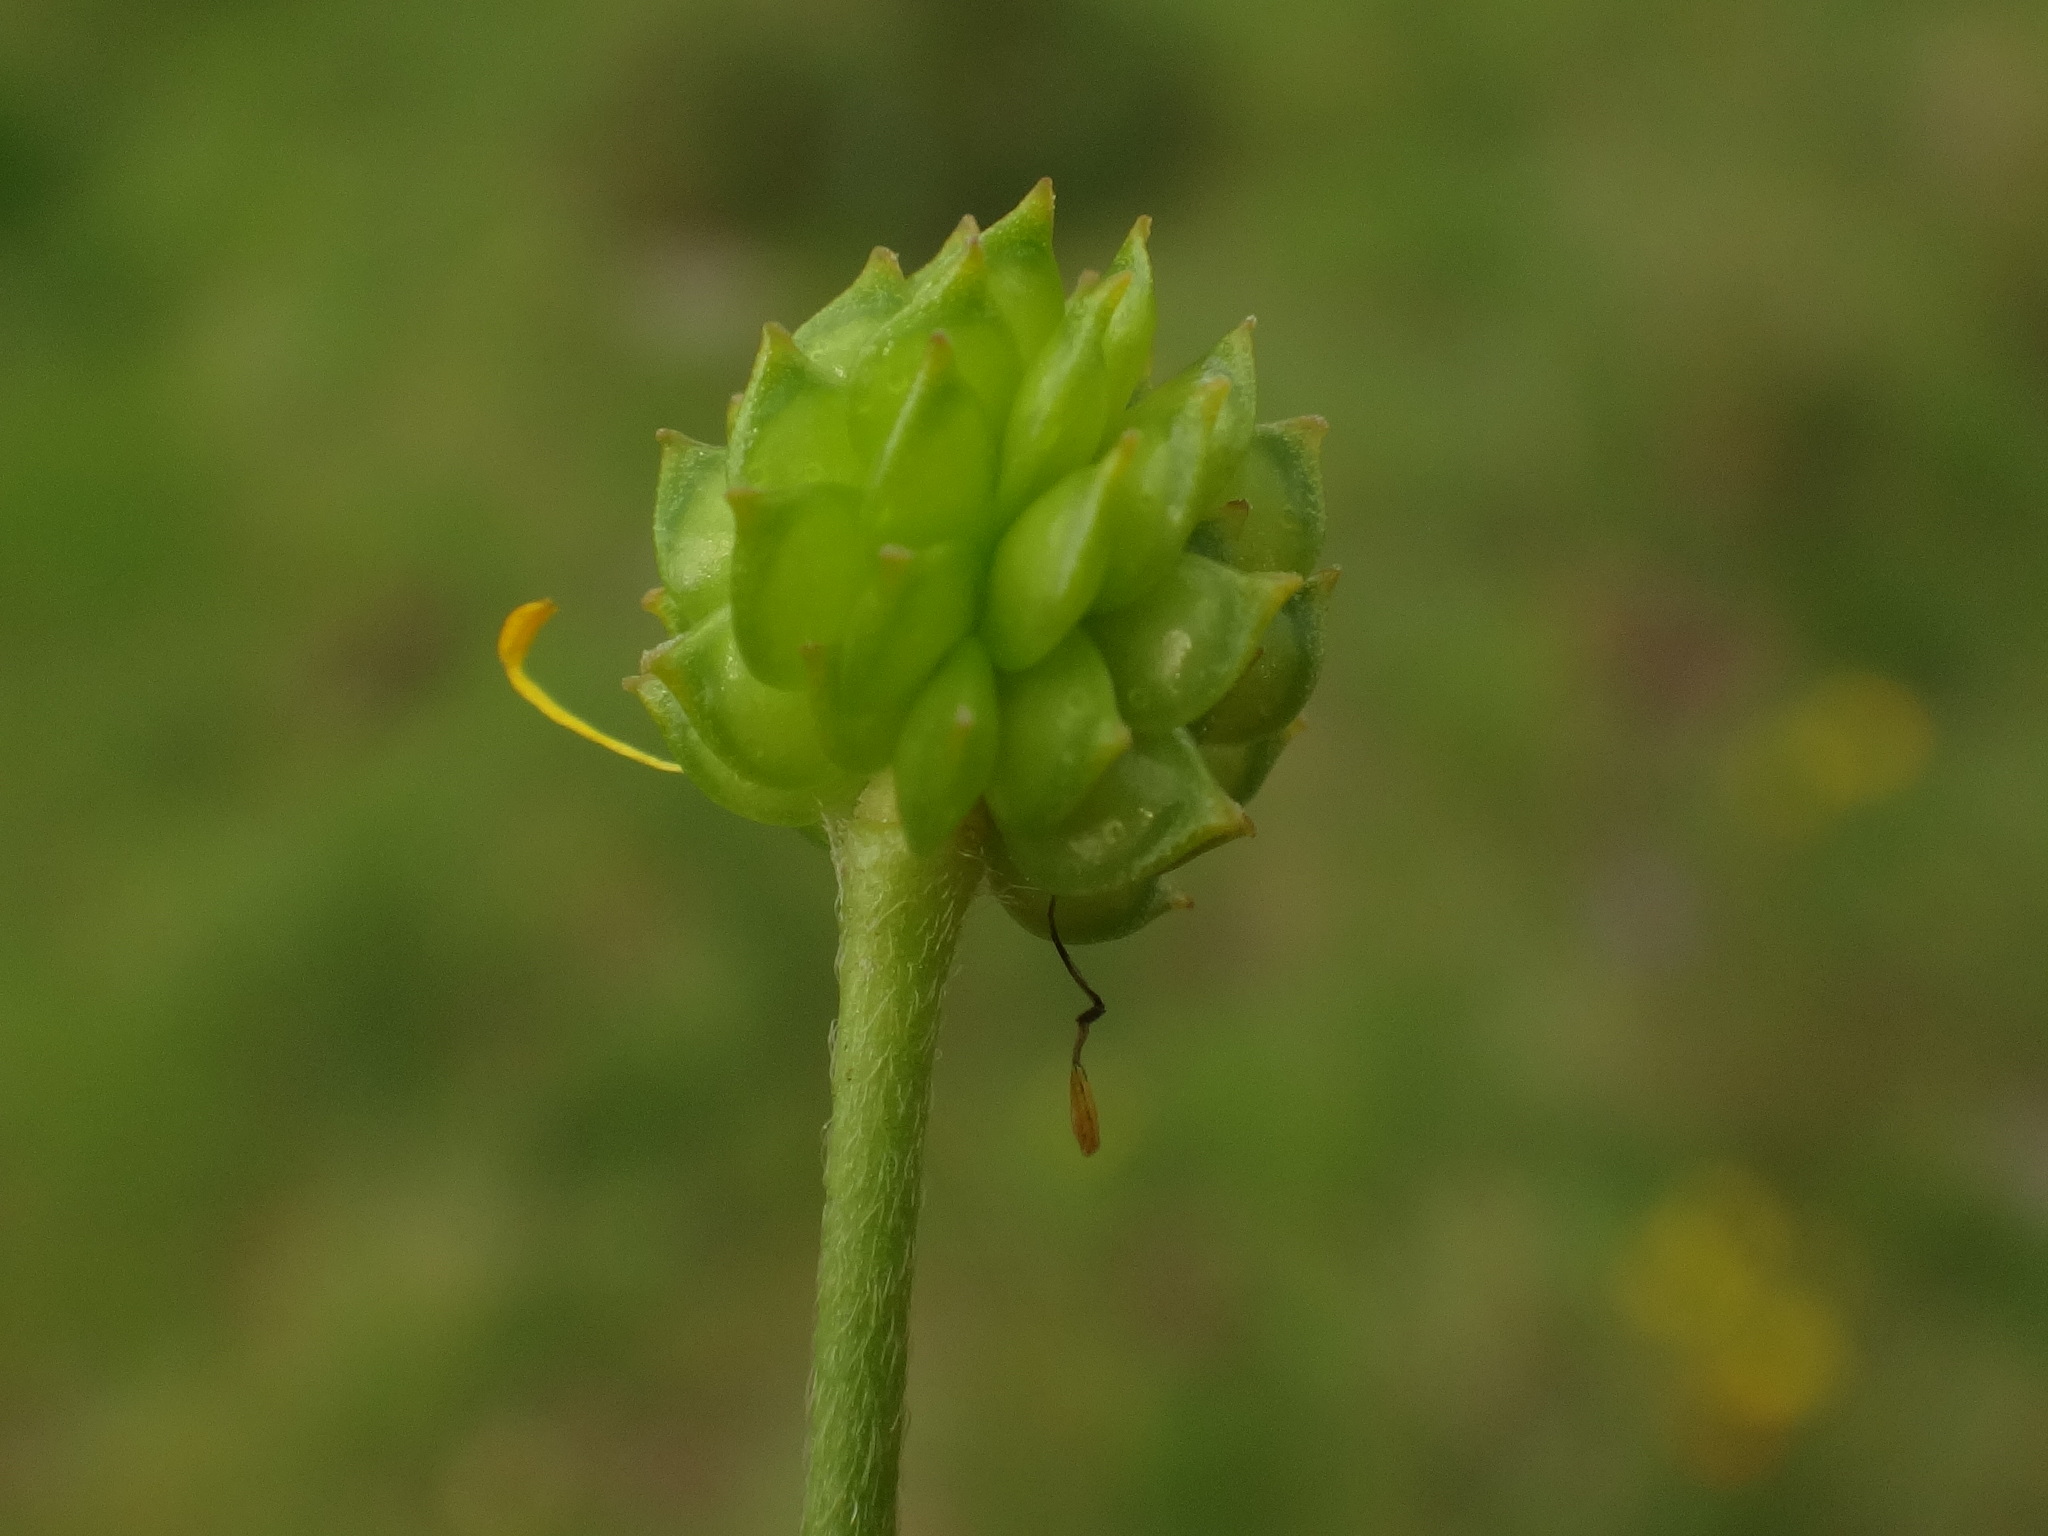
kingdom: Plantae
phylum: Tracheophyta
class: Magnoliopsida
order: Ranunculales
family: Ranunculaceae
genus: Ranunculus
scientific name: Ranunculus acris
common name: Meadow buttercup
